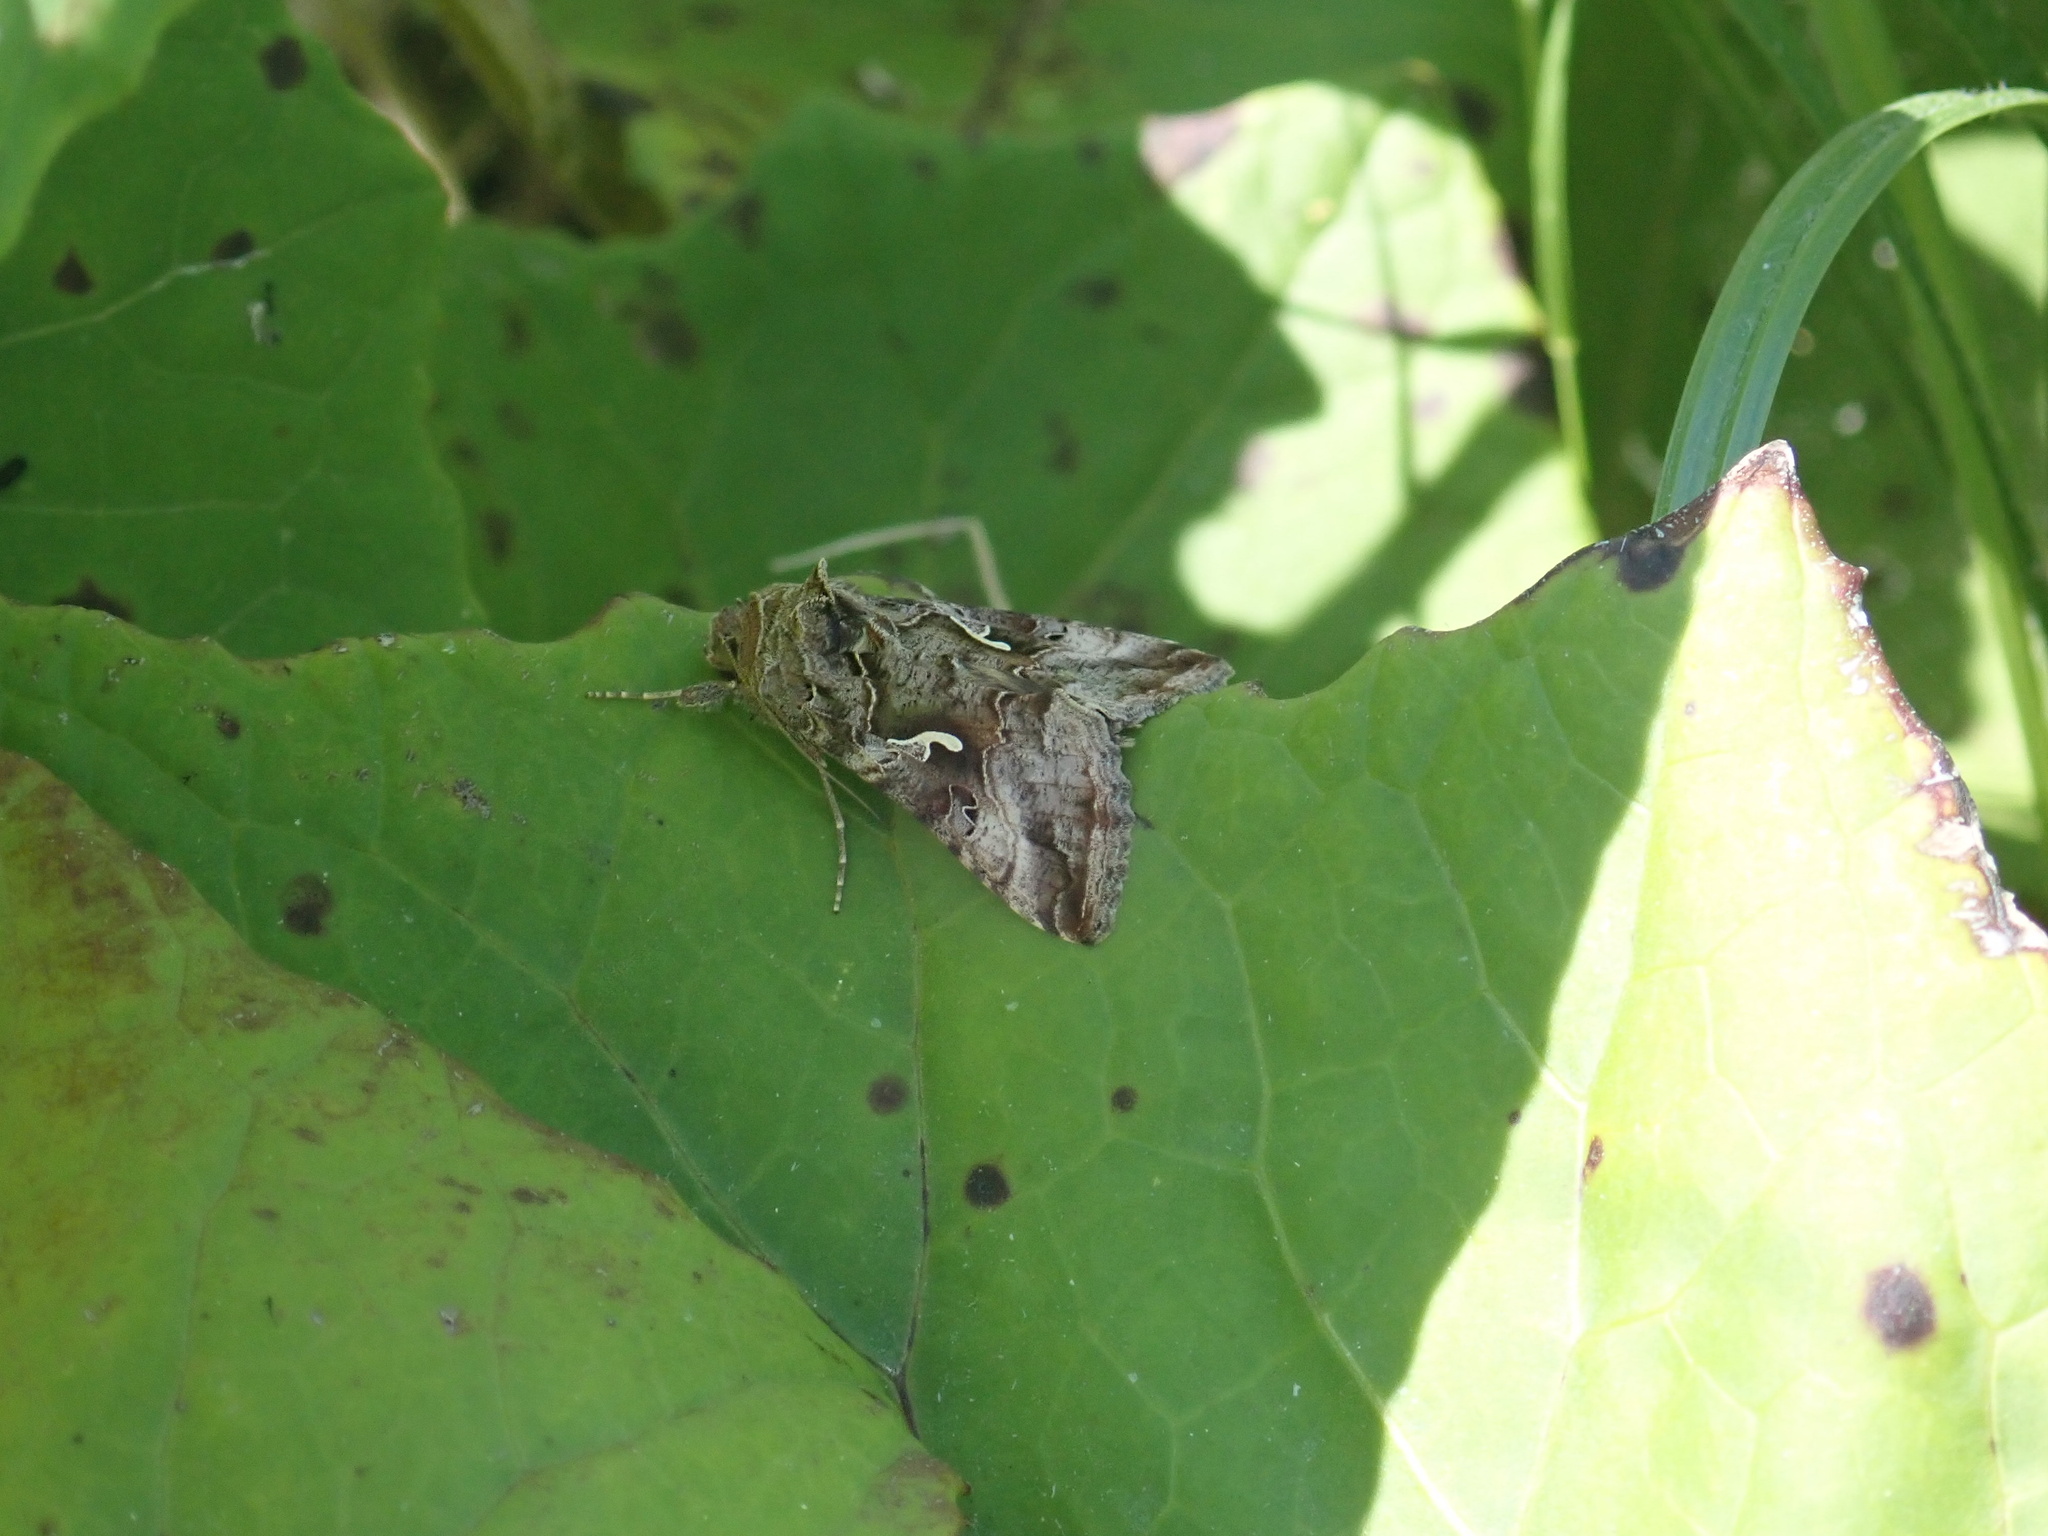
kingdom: Animalia
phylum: Arthropoda
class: Insecta
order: Lepidoptera
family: Noctuidae
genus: Autographa
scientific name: Autographa gamma
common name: Silver y
